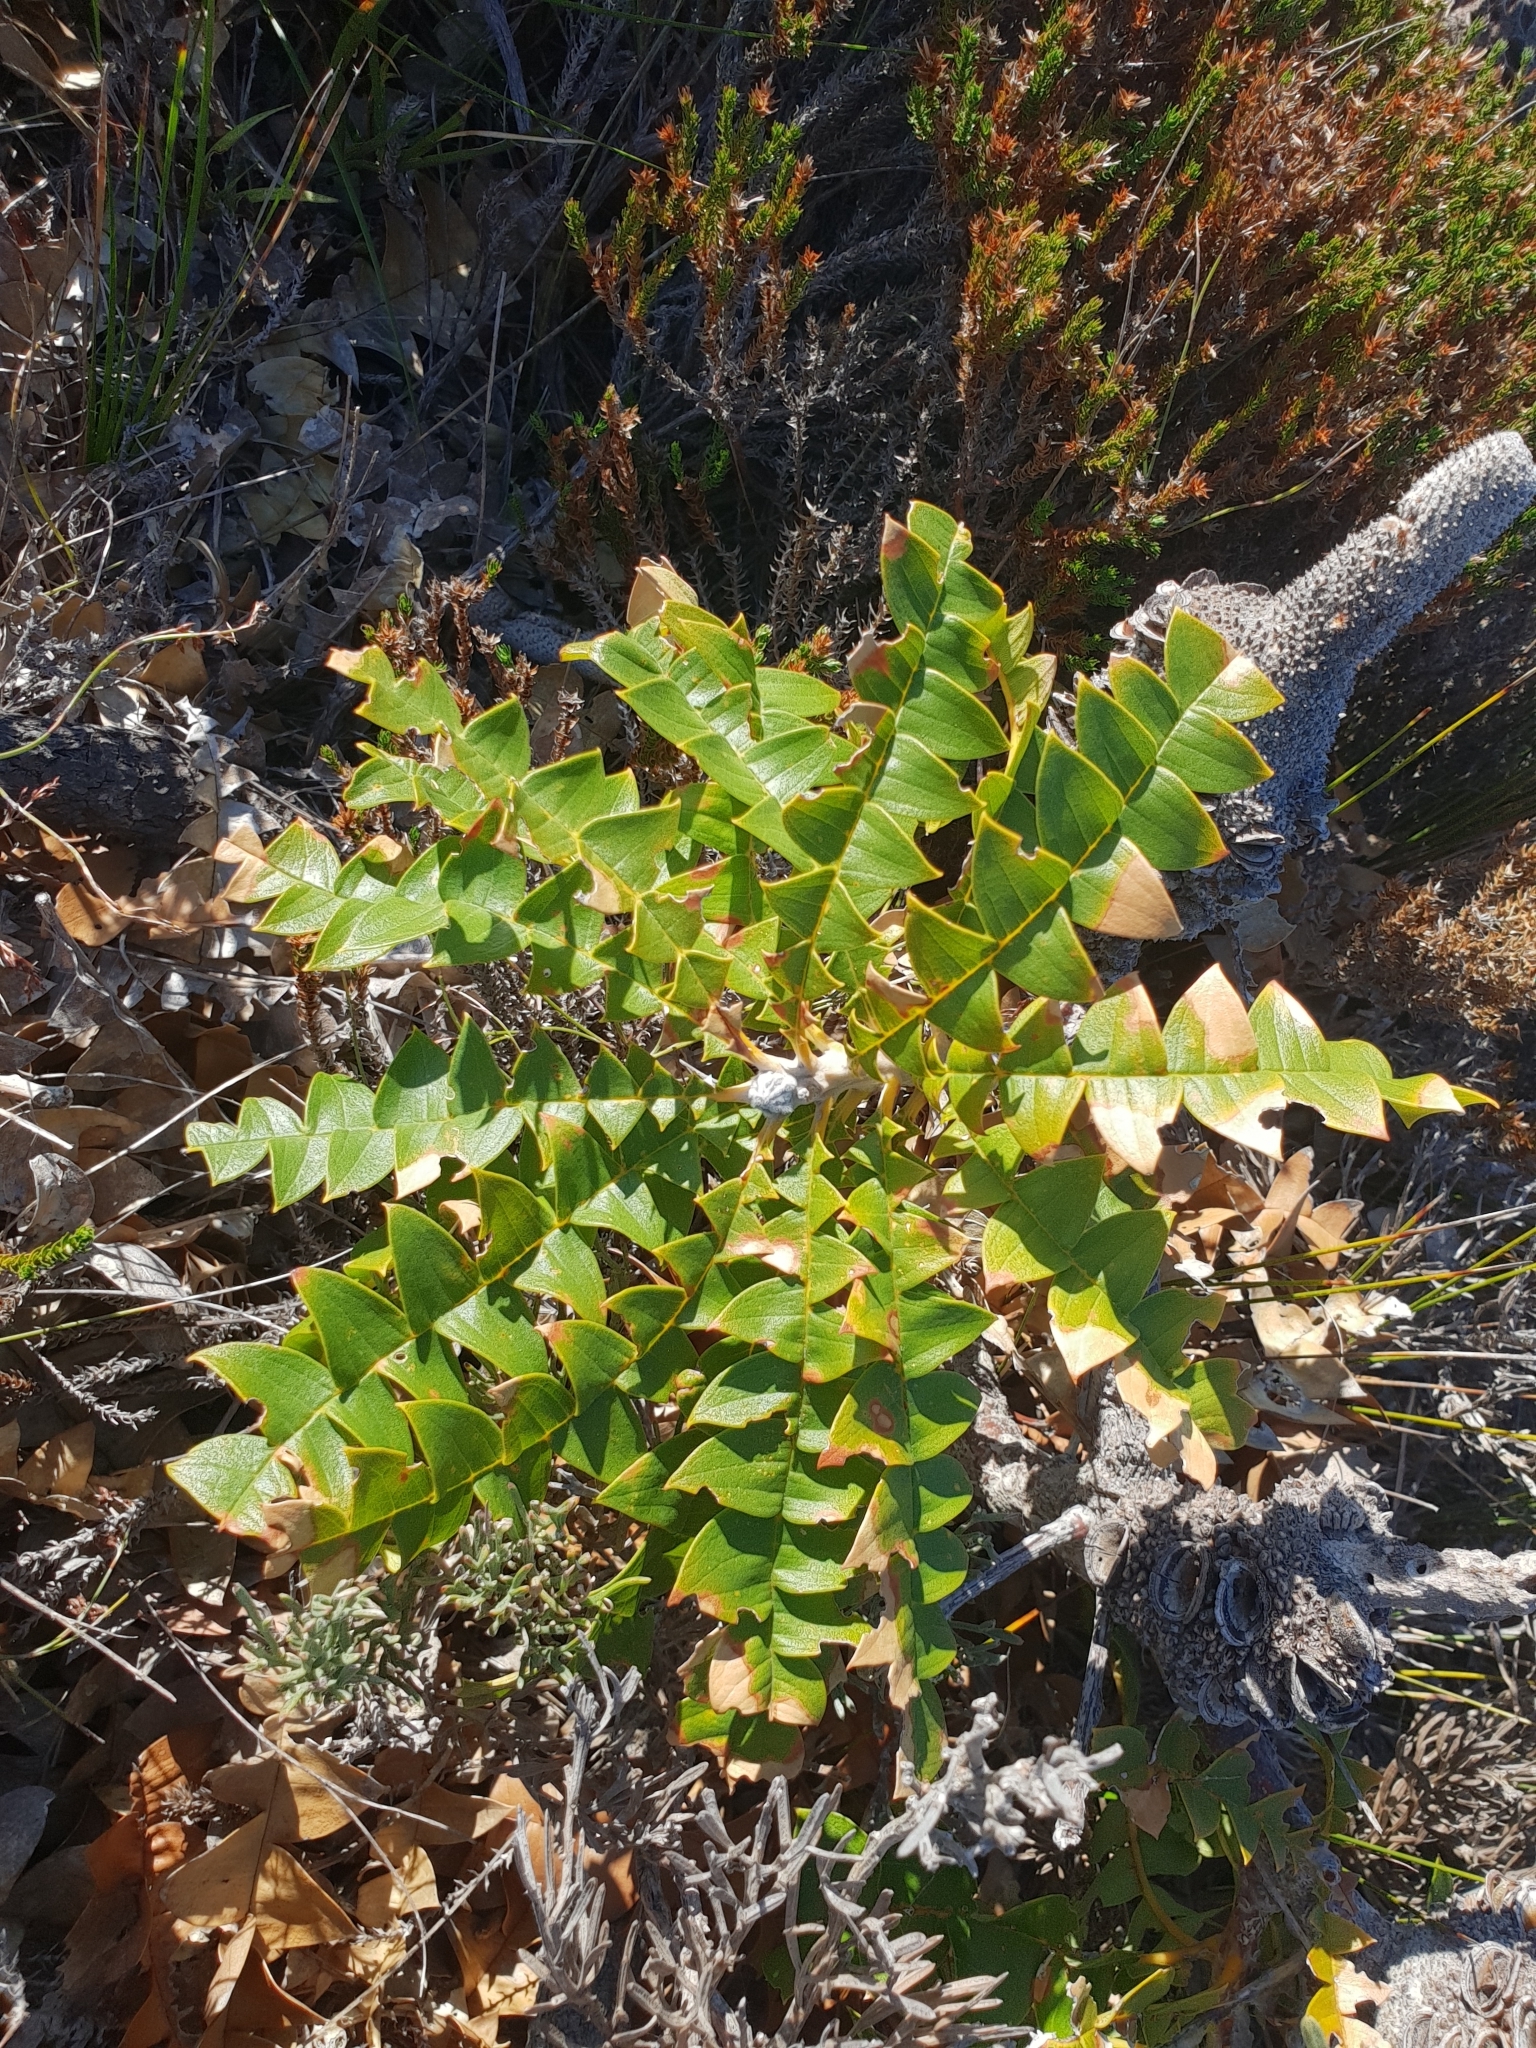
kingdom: Plantae
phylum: Tracheophyta
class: Magnoliopsida
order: Proteales
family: Proteaceae
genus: Banksia
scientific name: Banksia grandis
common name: Giant banksia
